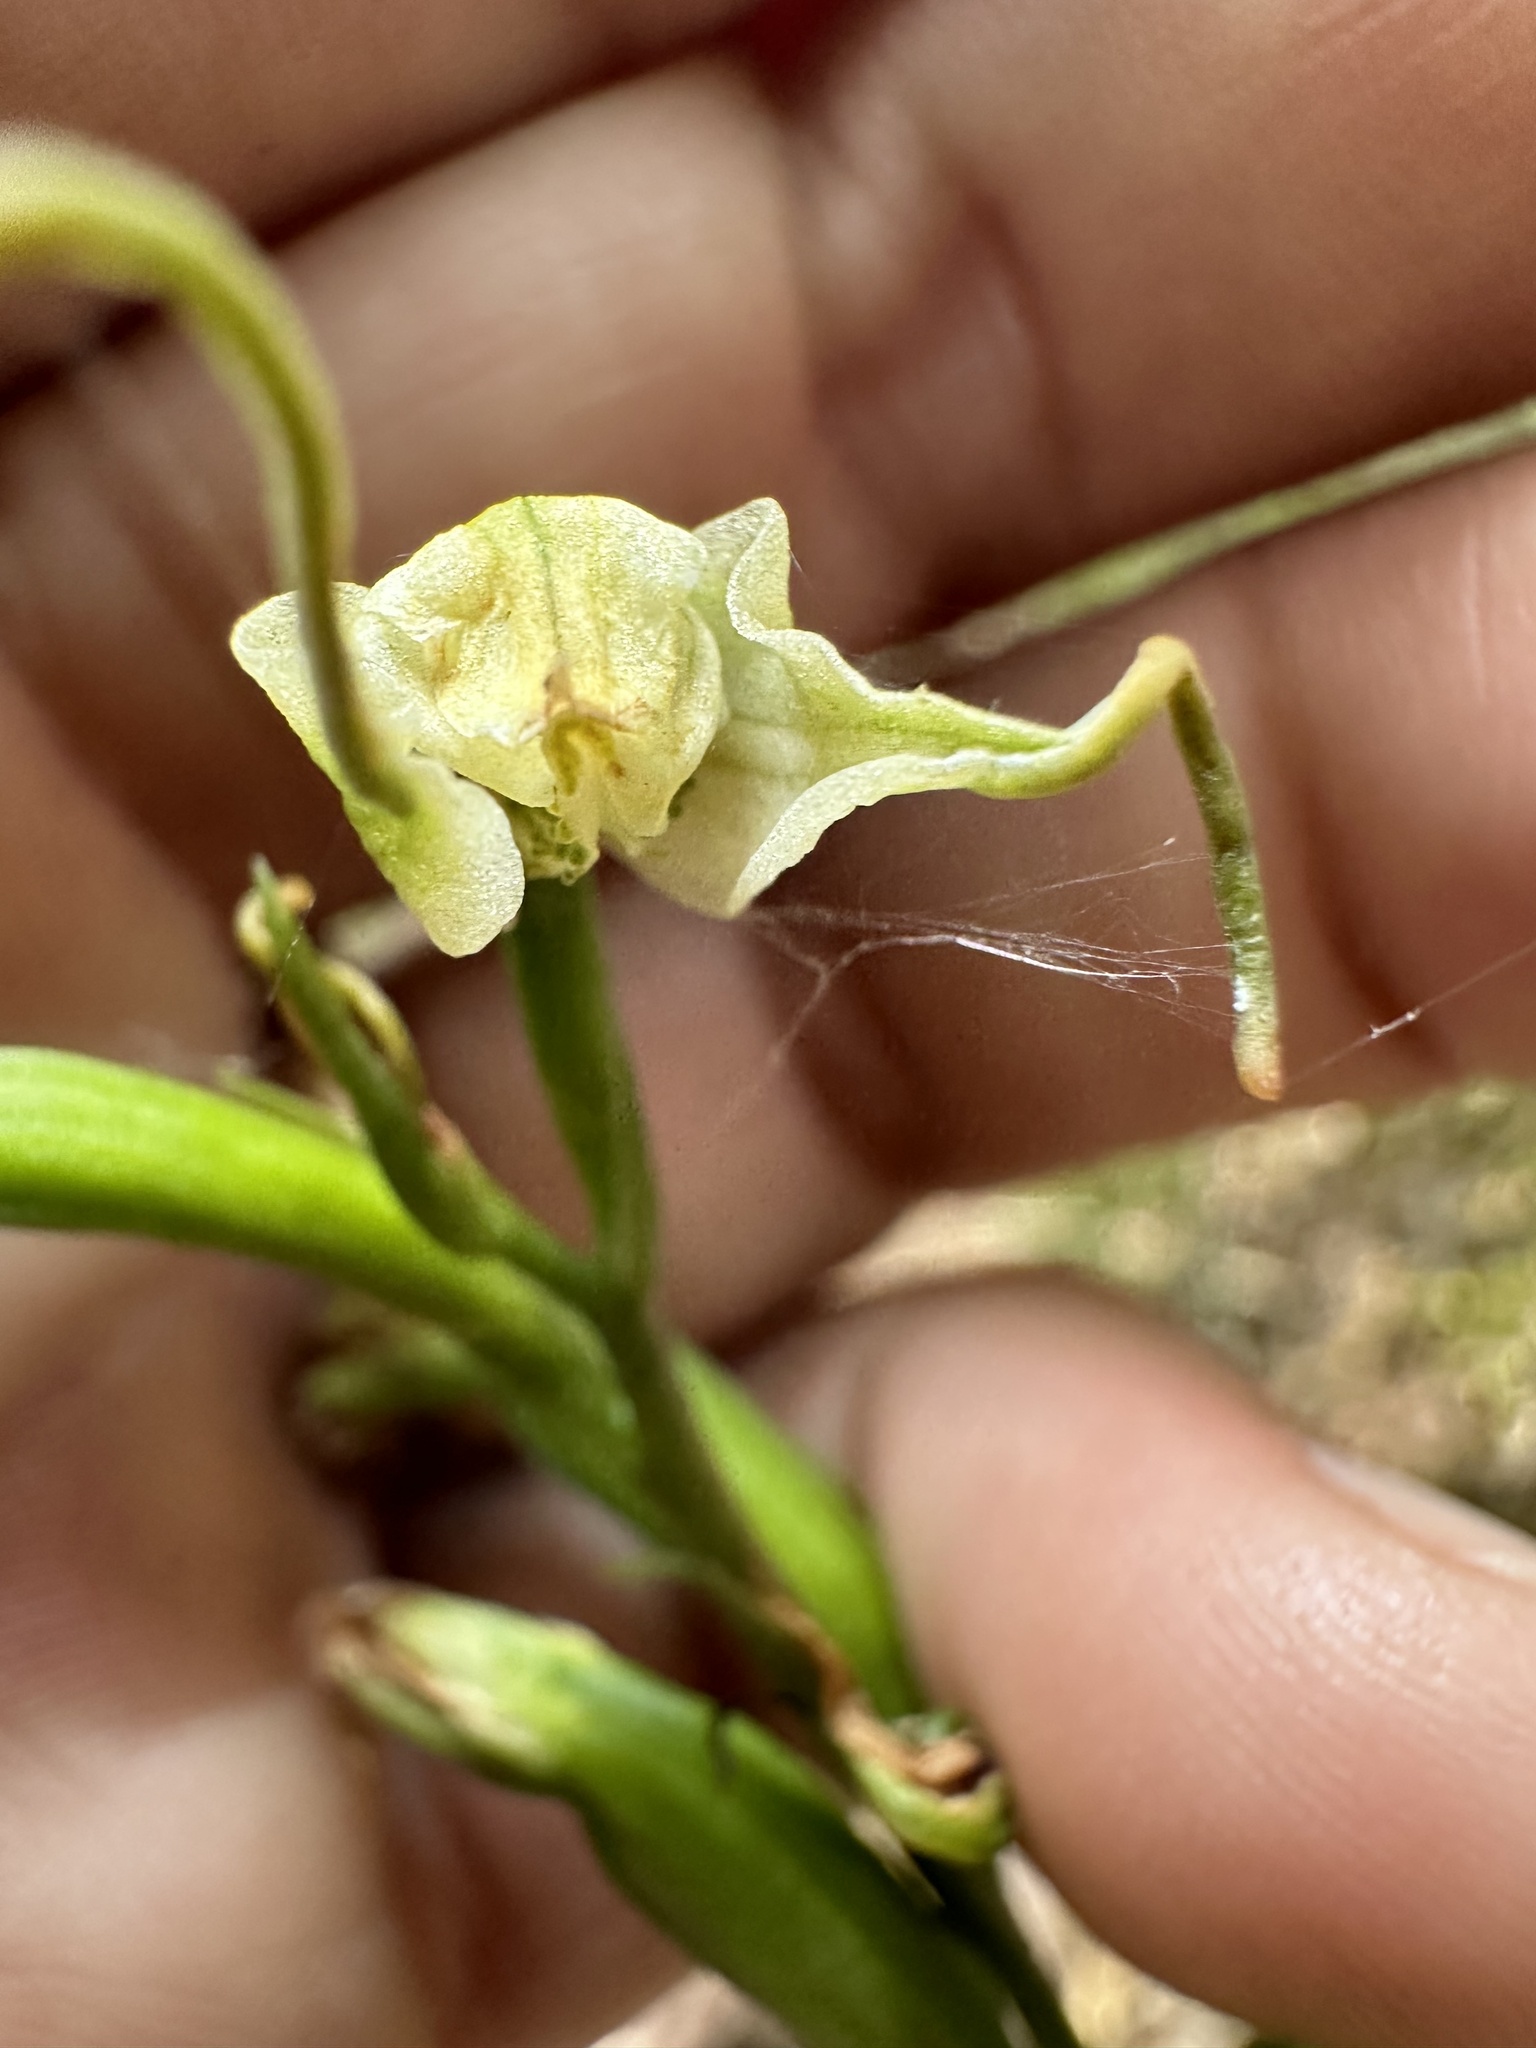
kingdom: Plantae
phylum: Tracheophyta
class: Liliopsida
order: Asparagales
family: Orchidaceae
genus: Gavilea
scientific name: Gavilea araucana
